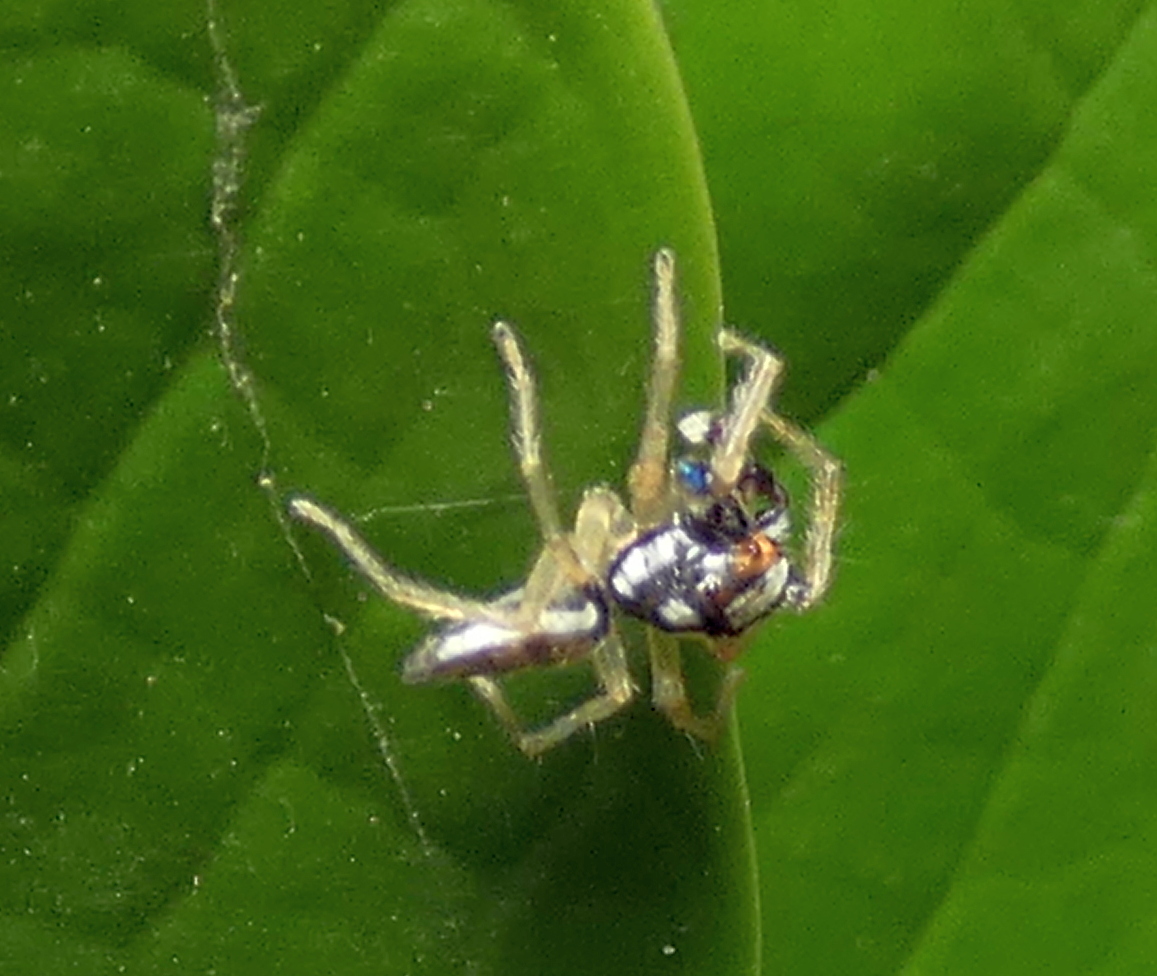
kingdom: Animalia
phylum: Arthropoda
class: Arachnida
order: Araneae
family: Salticidae
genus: Chira
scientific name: Chira spinosa
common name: Jumping spiders
